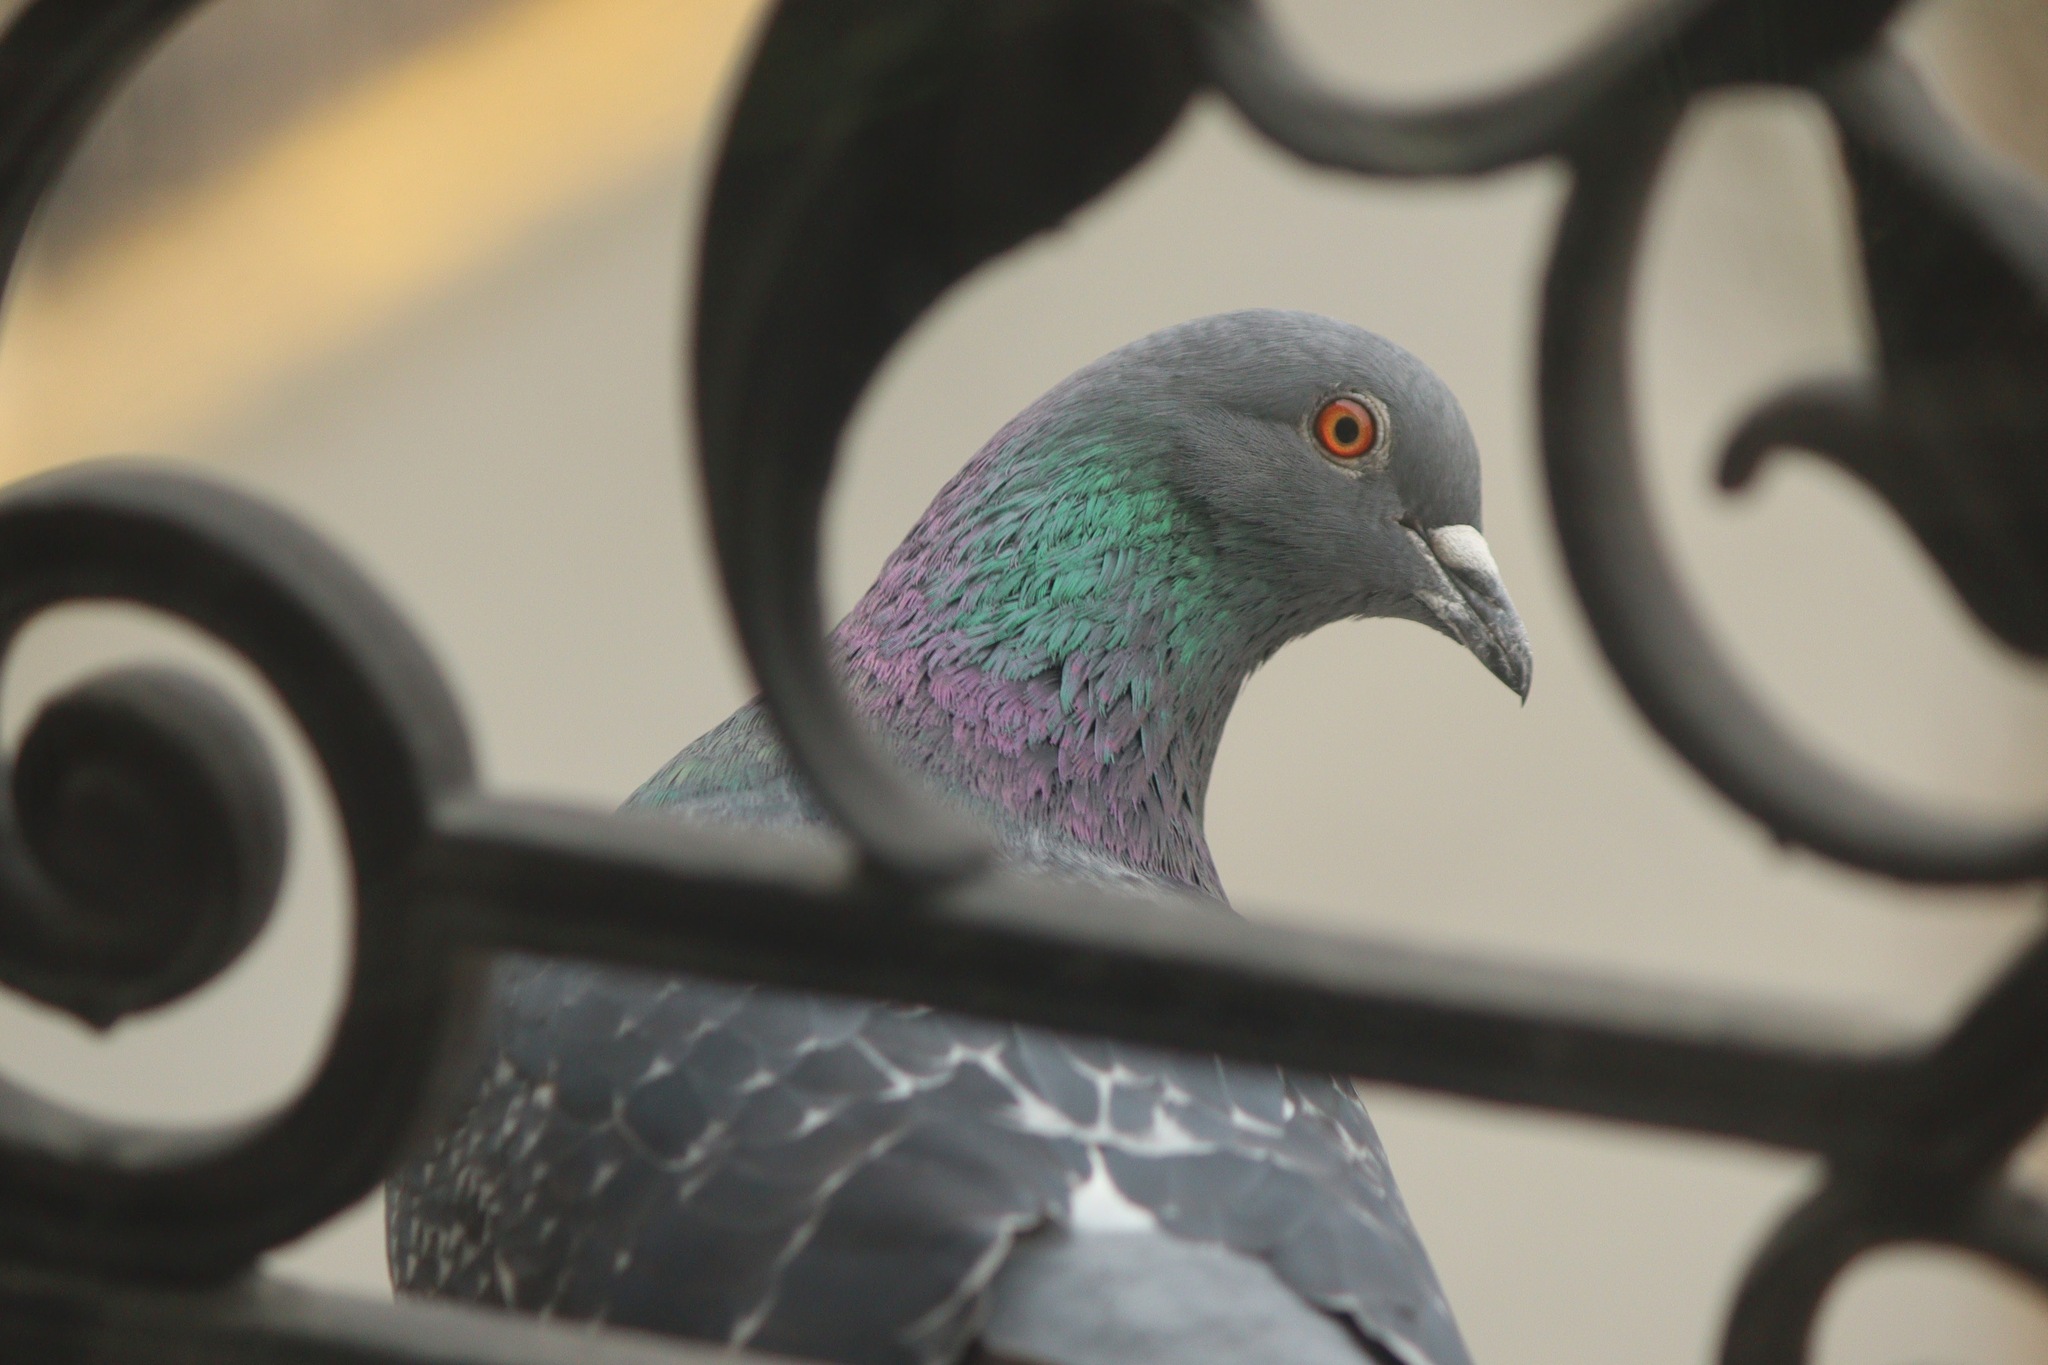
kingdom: Animalia
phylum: Chordata
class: Aves
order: Columbiformes
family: Columbidae
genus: Columba
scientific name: Columba livia
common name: Rock pigeon
